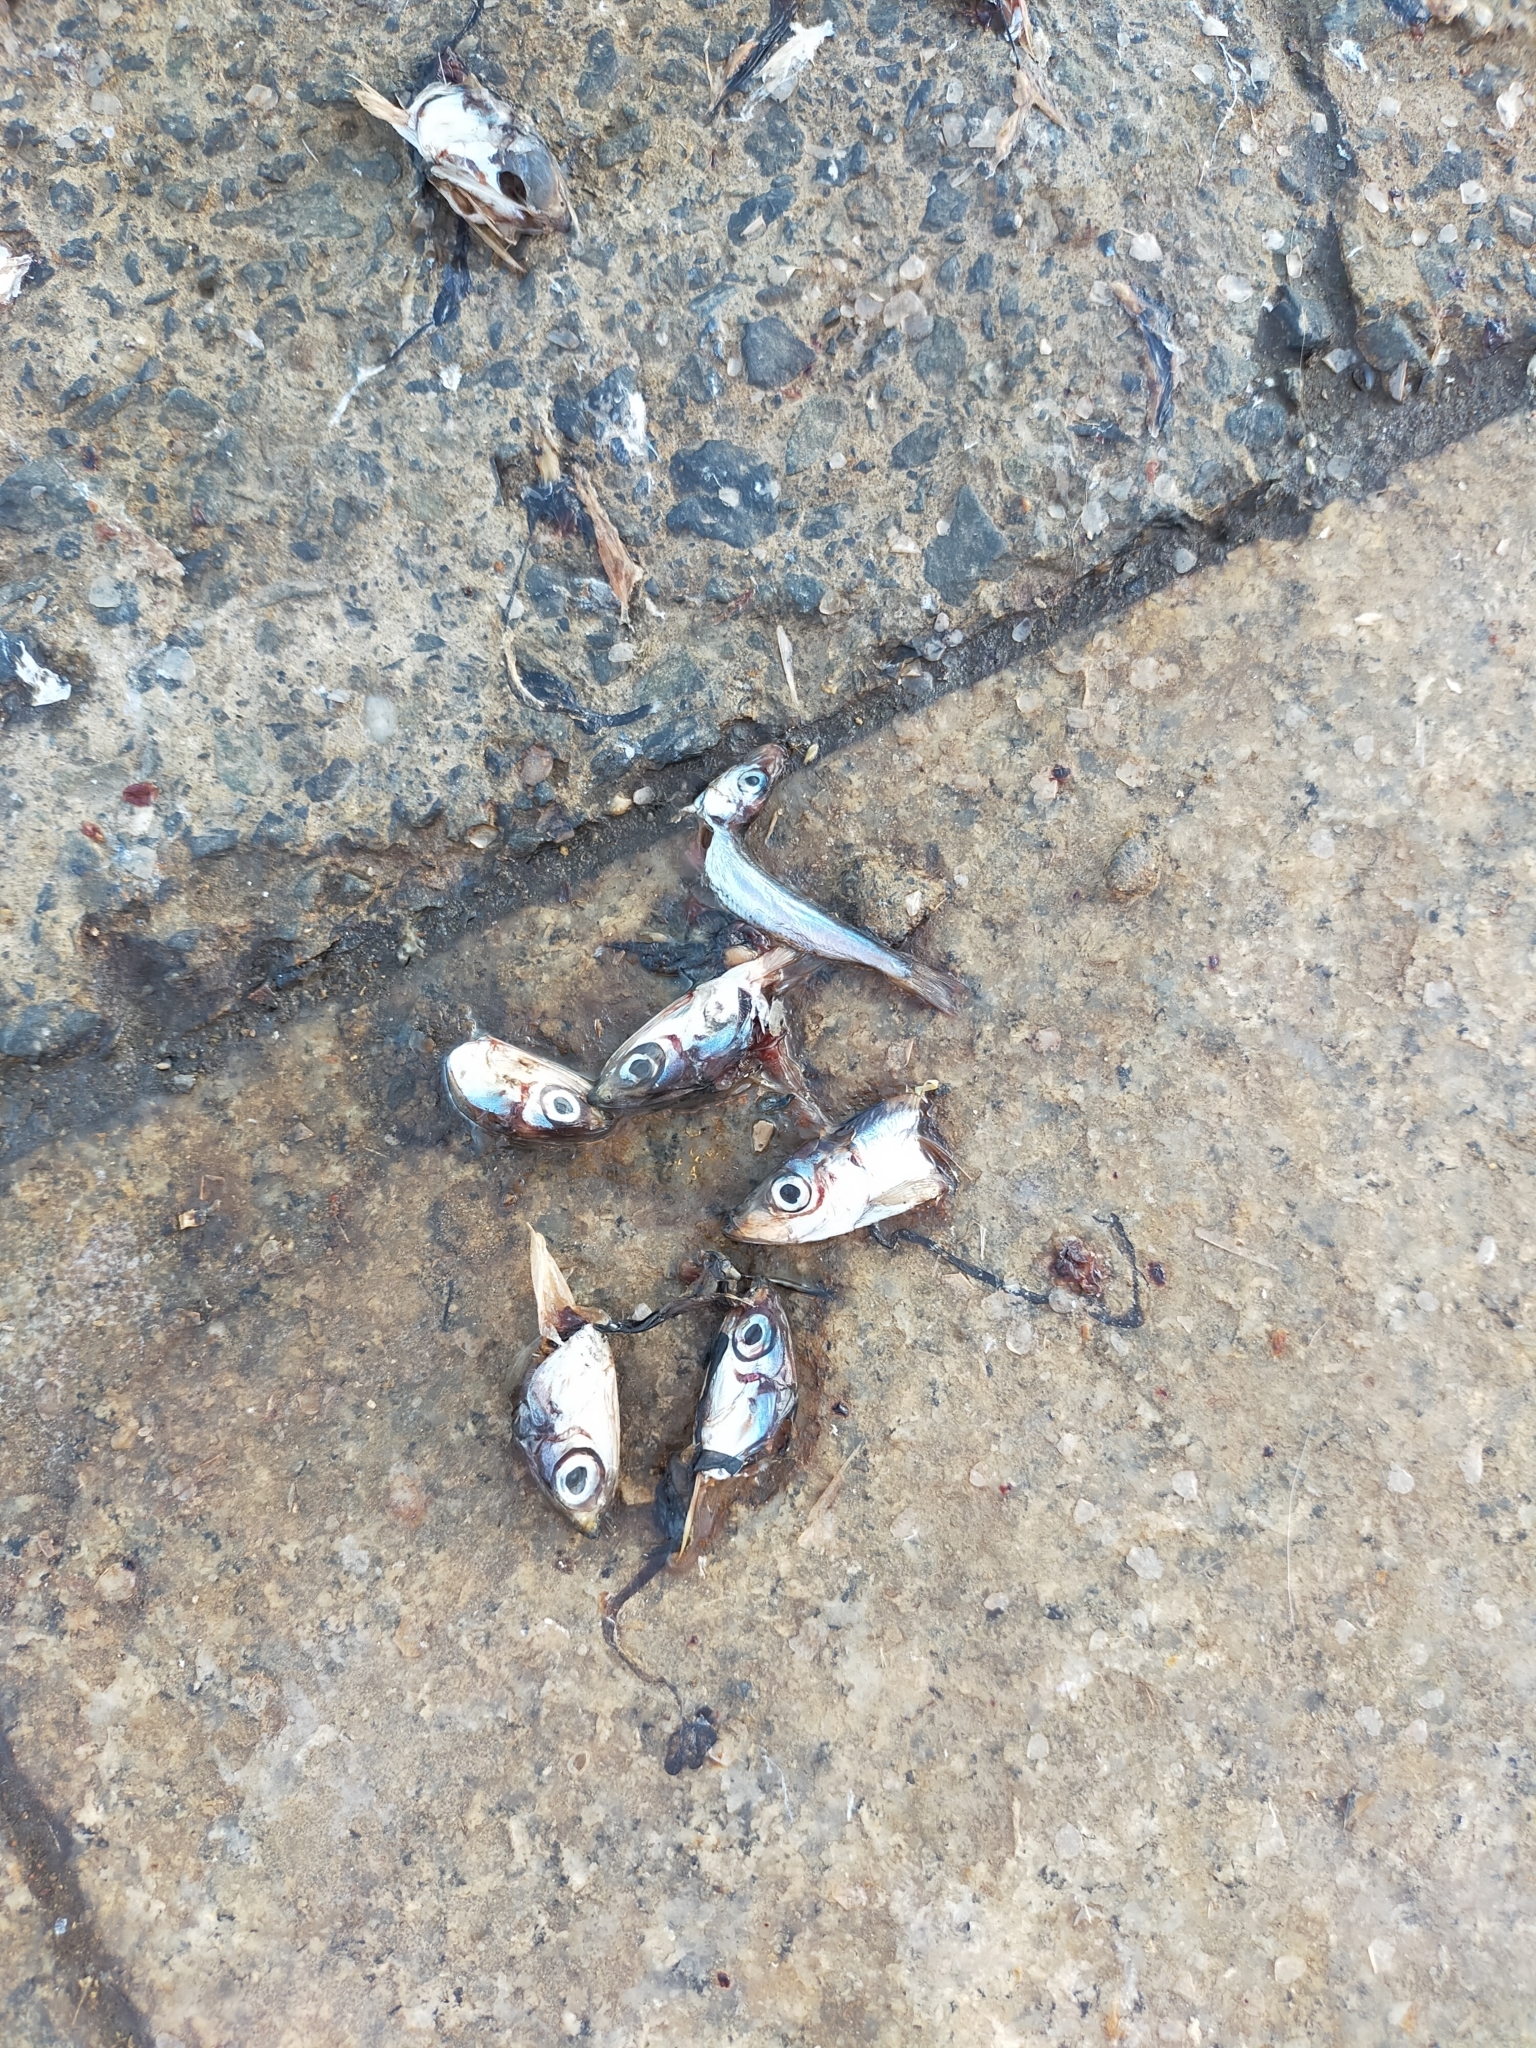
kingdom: Animalia
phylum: Chordata
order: Clupeiformes
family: Engraulidae
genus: Engraulis
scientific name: Engraulis encrasicolus
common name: European anchovy
